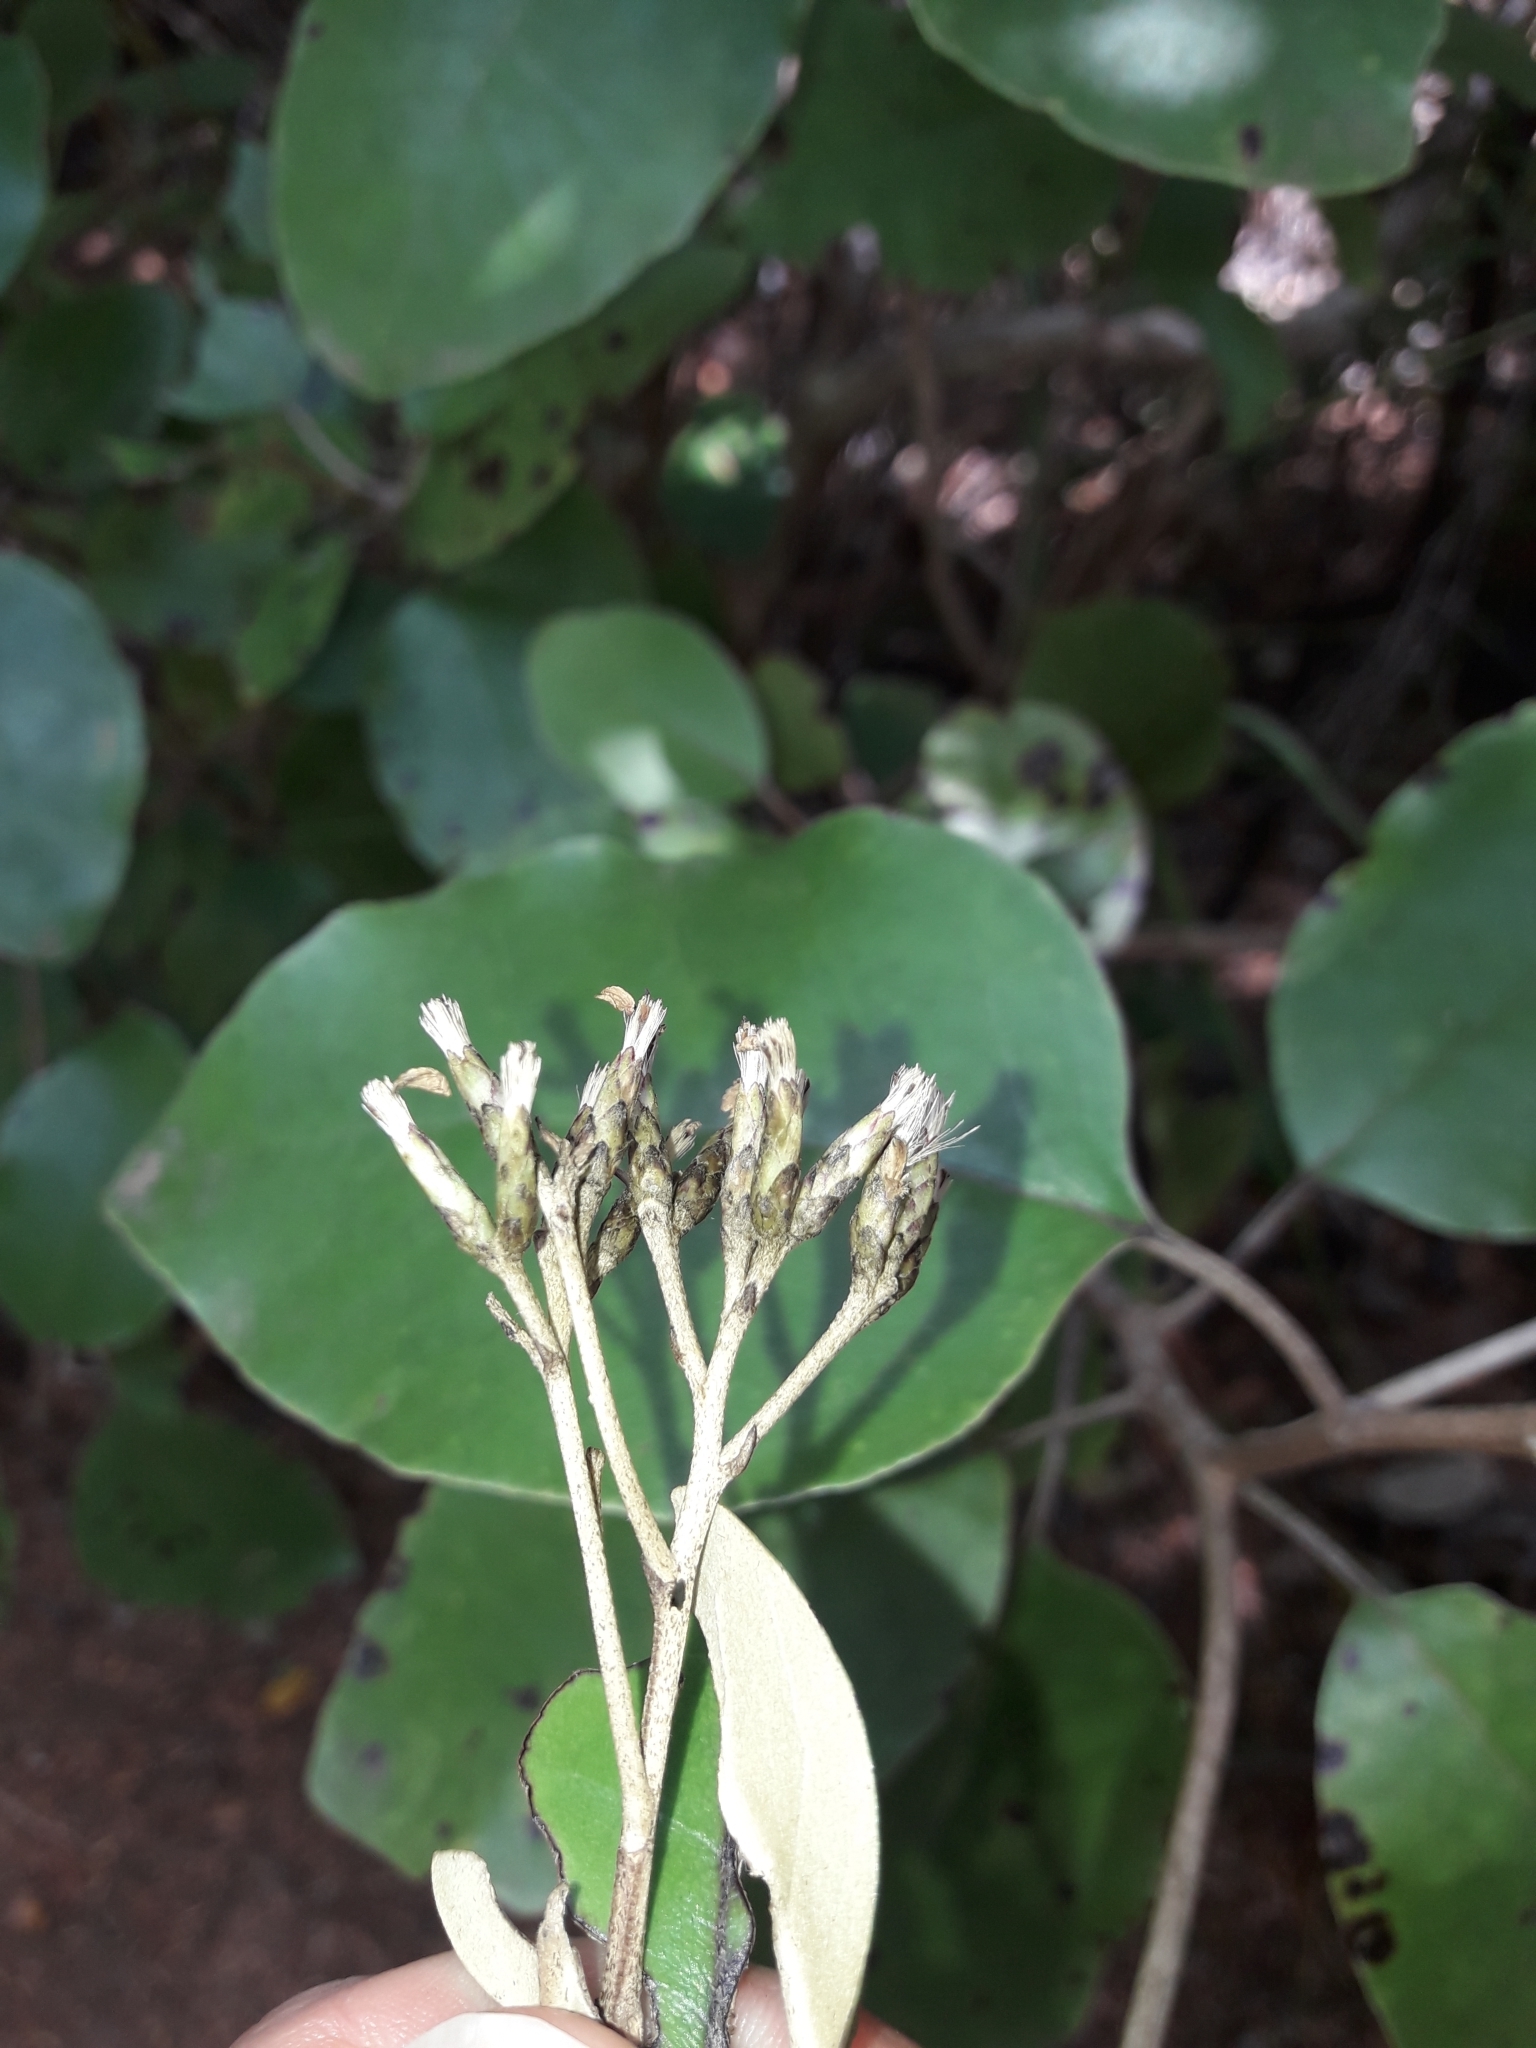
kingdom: Plantae
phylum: Tracheophyta
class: Magnoliopsida
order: Asterales
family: Asteraceae
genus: Olearia
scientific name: Olearia furfuracea
